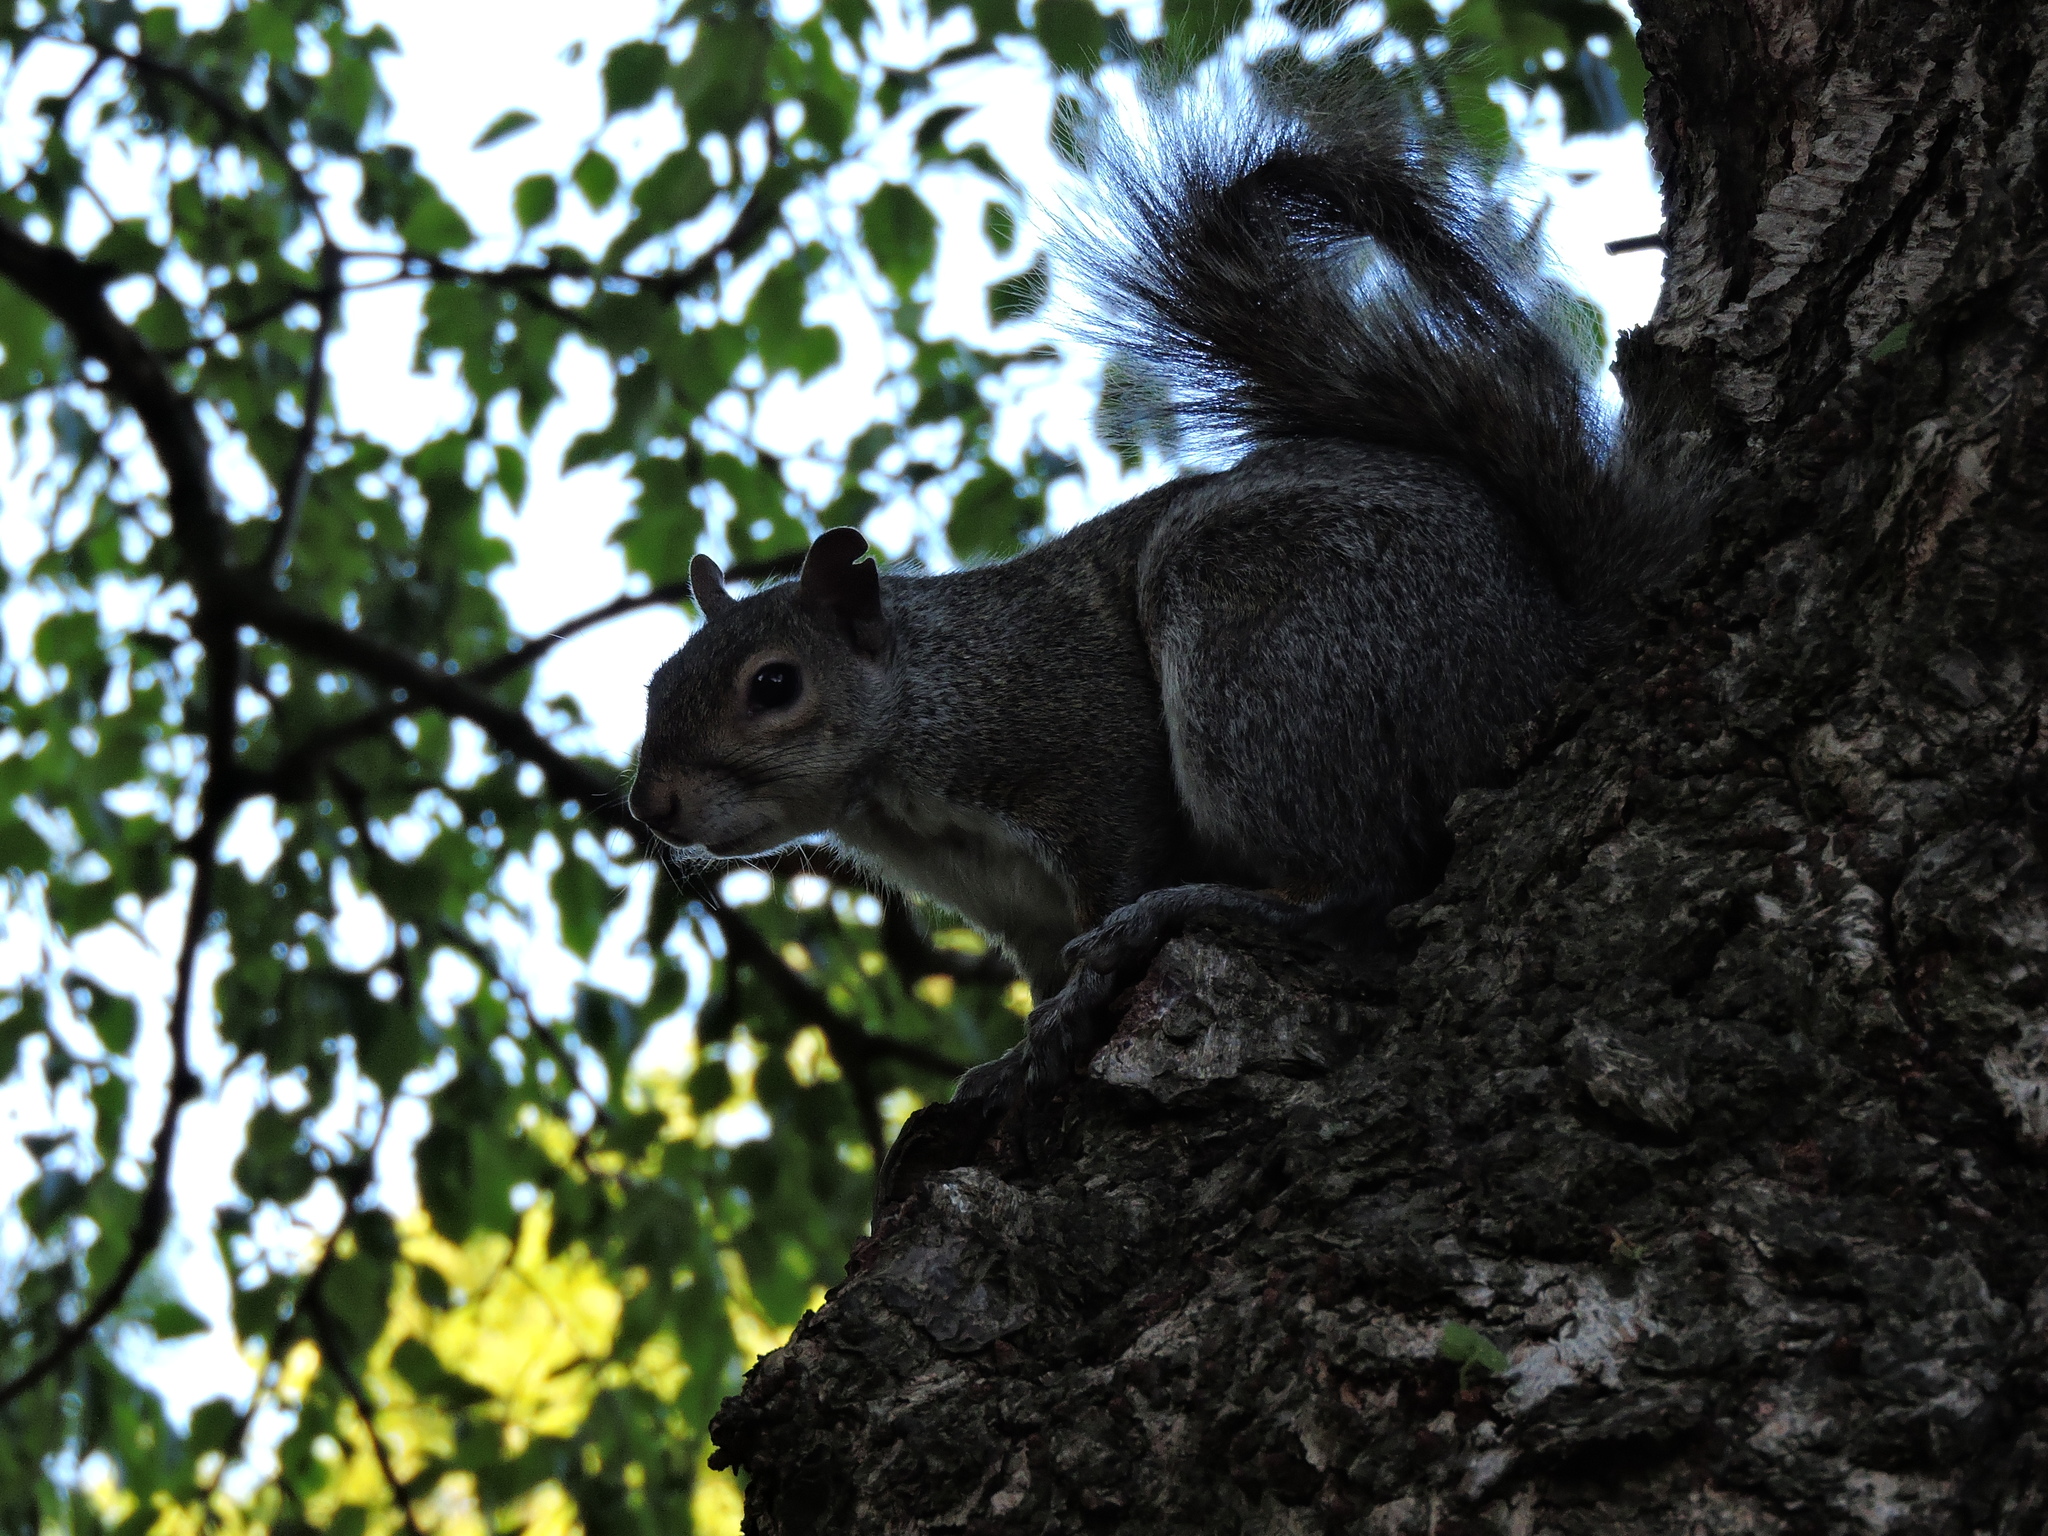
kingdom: Animalia
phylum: Chordata
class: Mammalia
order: Rodentia
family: Sciuridae
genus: Sciurus
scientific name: Sciurus carolinensis
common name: Eastern gray squirrel
